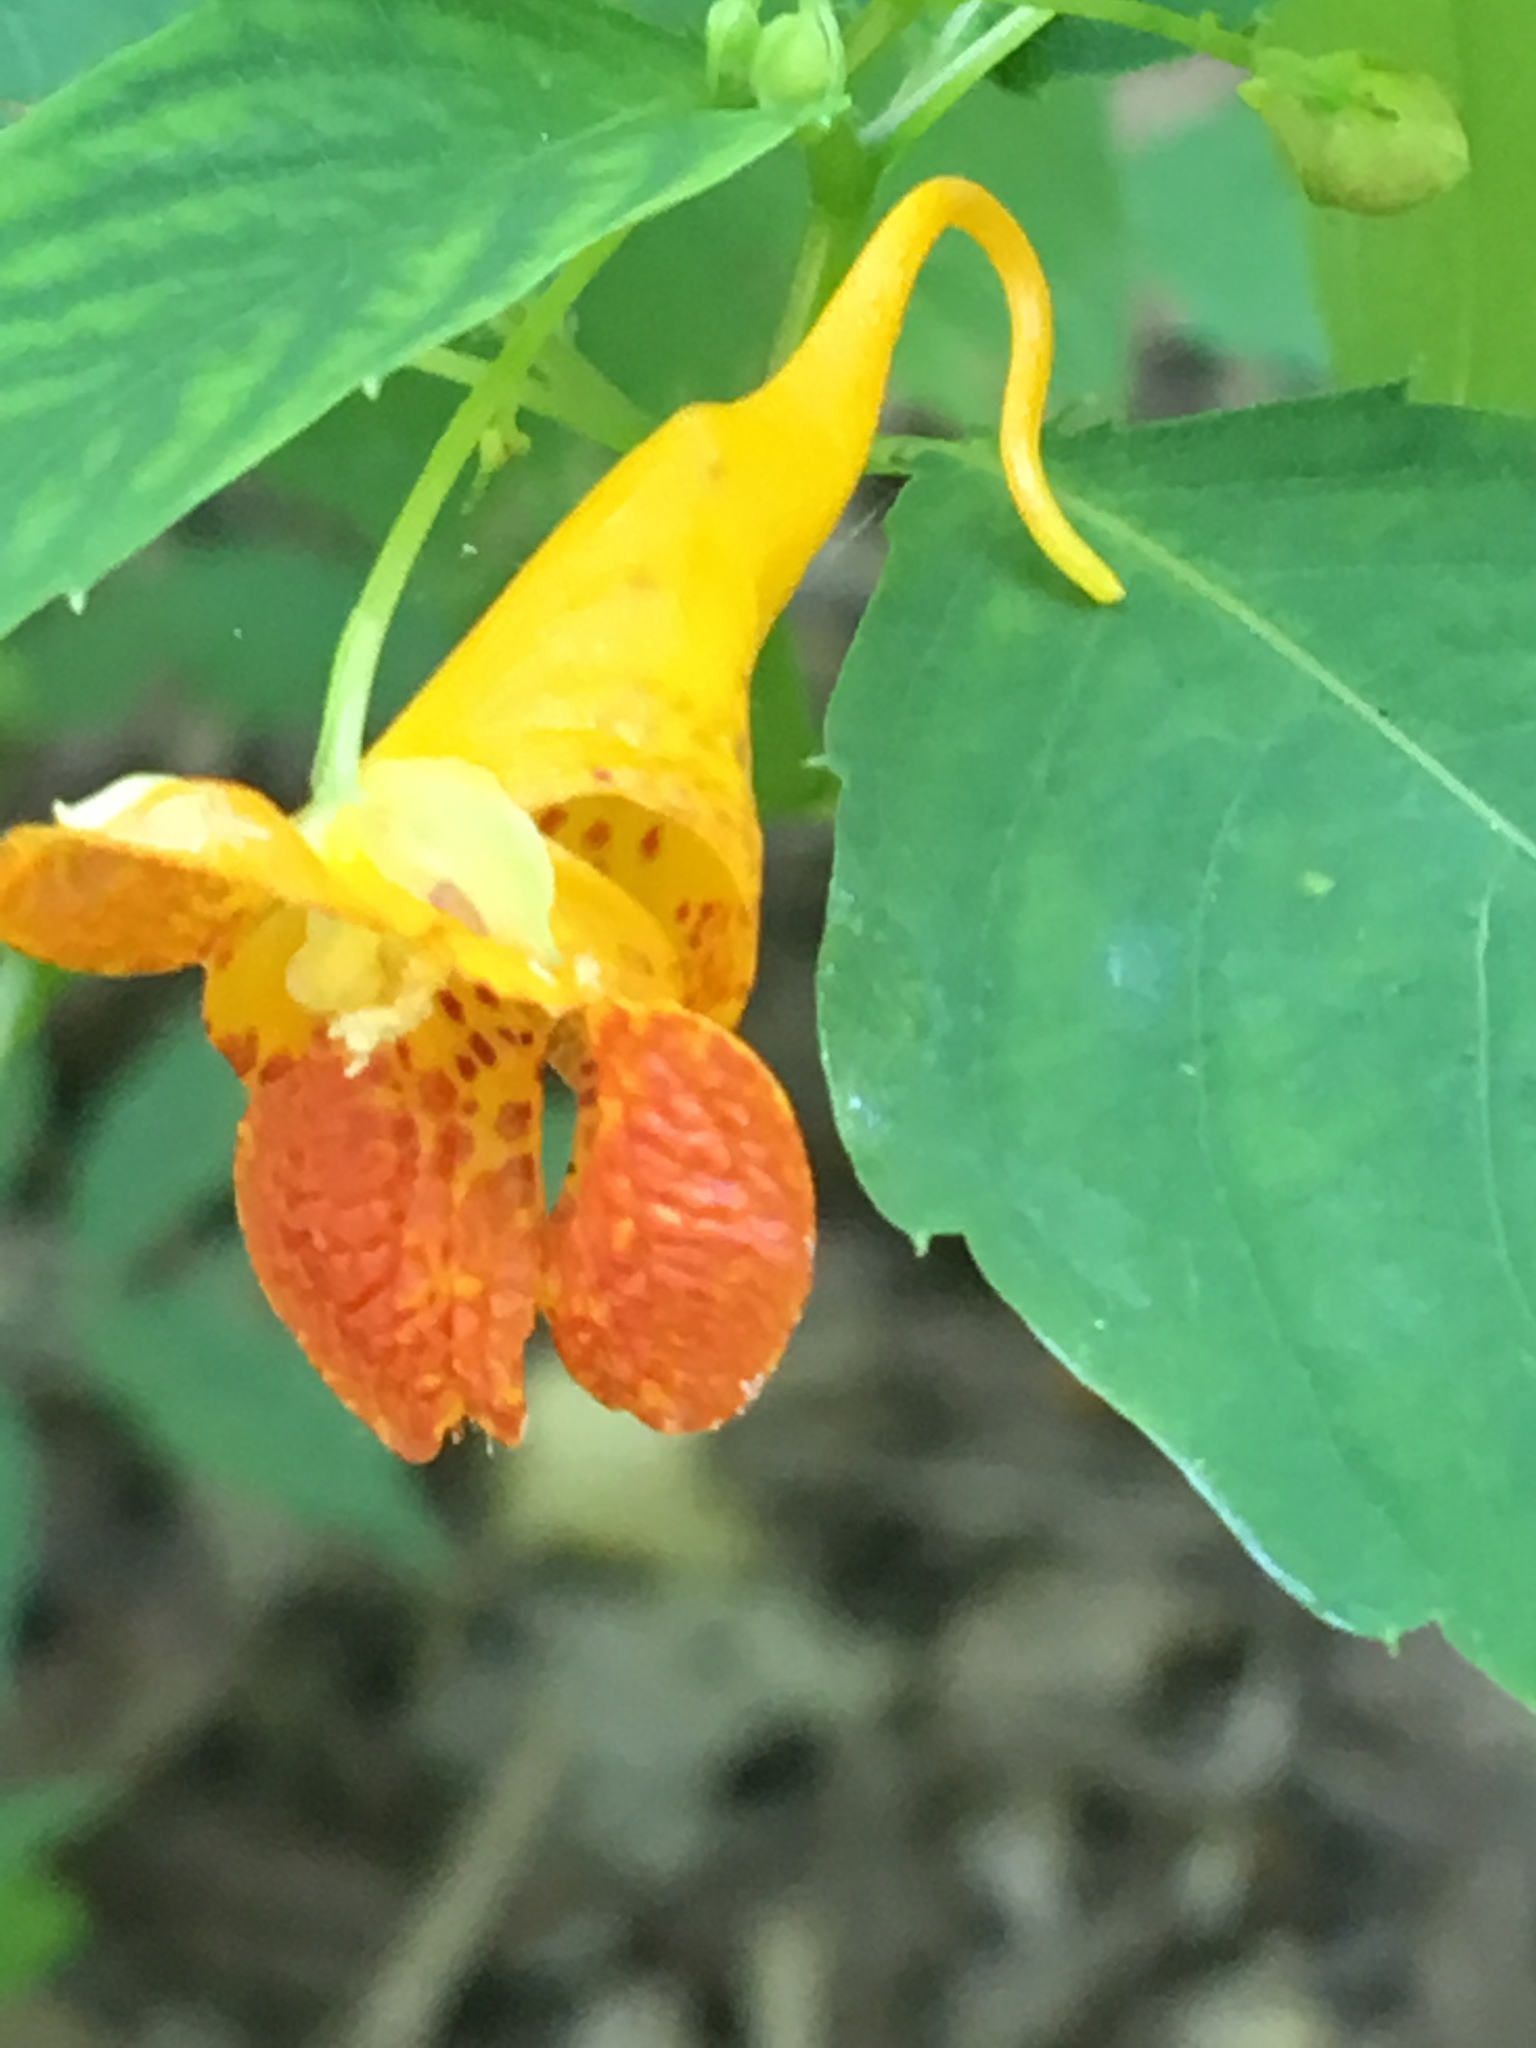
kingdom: Plantae
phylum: Tracheophyta
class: Magnoliopsida
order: Ericales
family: Balsaminaceae
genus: Impatiens
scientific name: Impatiens capensis
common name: Orange balsam
